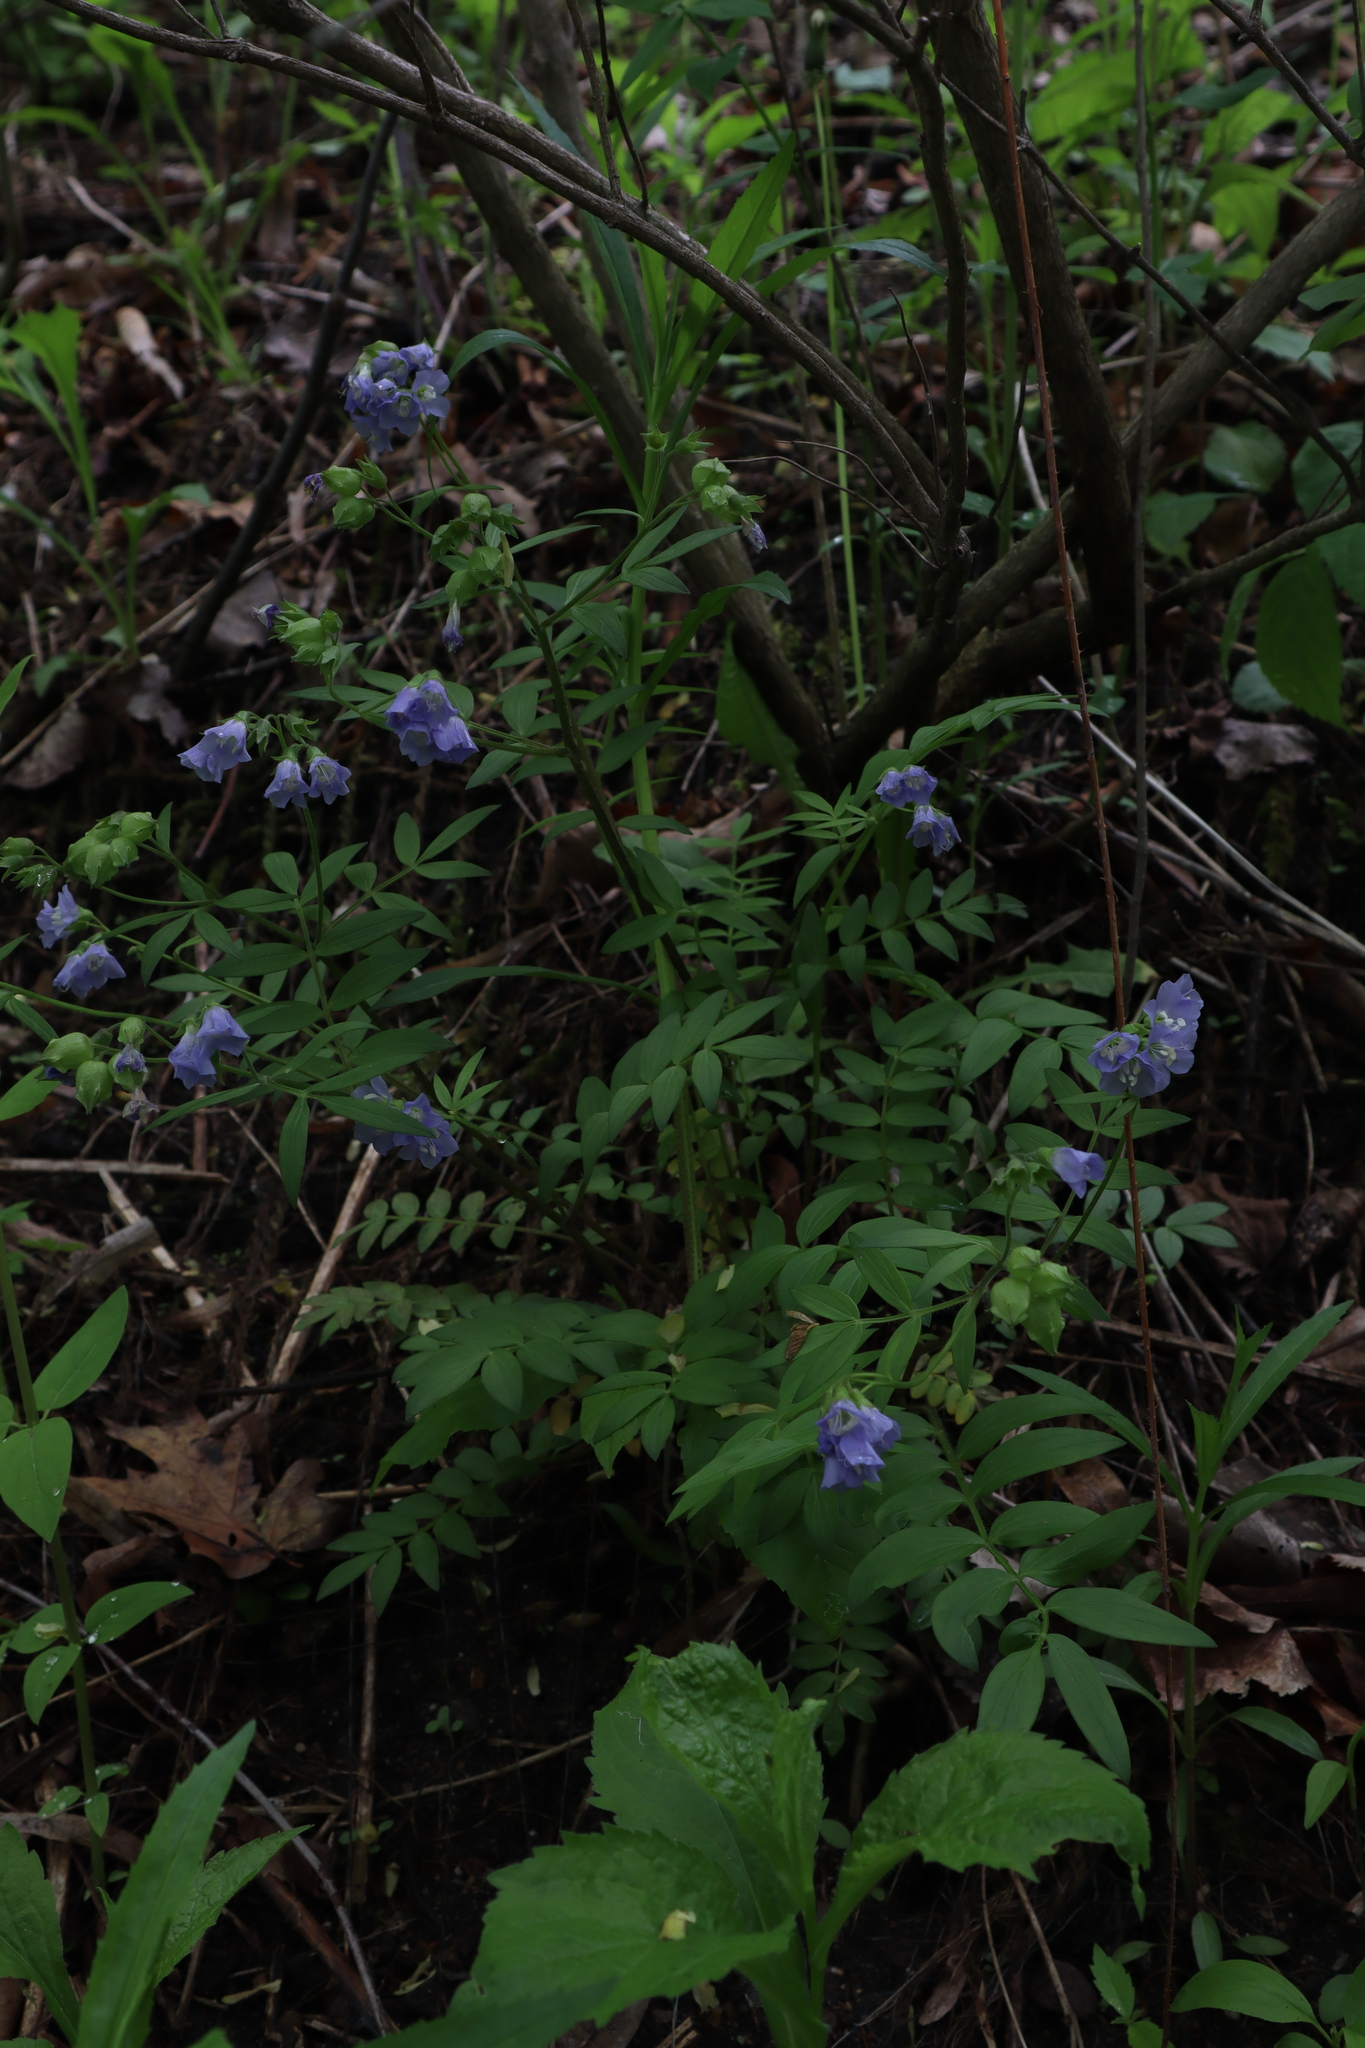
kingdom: Plantae
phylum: Tracheophyta
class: Magnoliopsida
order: Ericales
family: Polemoniaceae
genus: Polemonium
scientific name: Polemonium reptans
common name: Creeping jacob's-ladder
